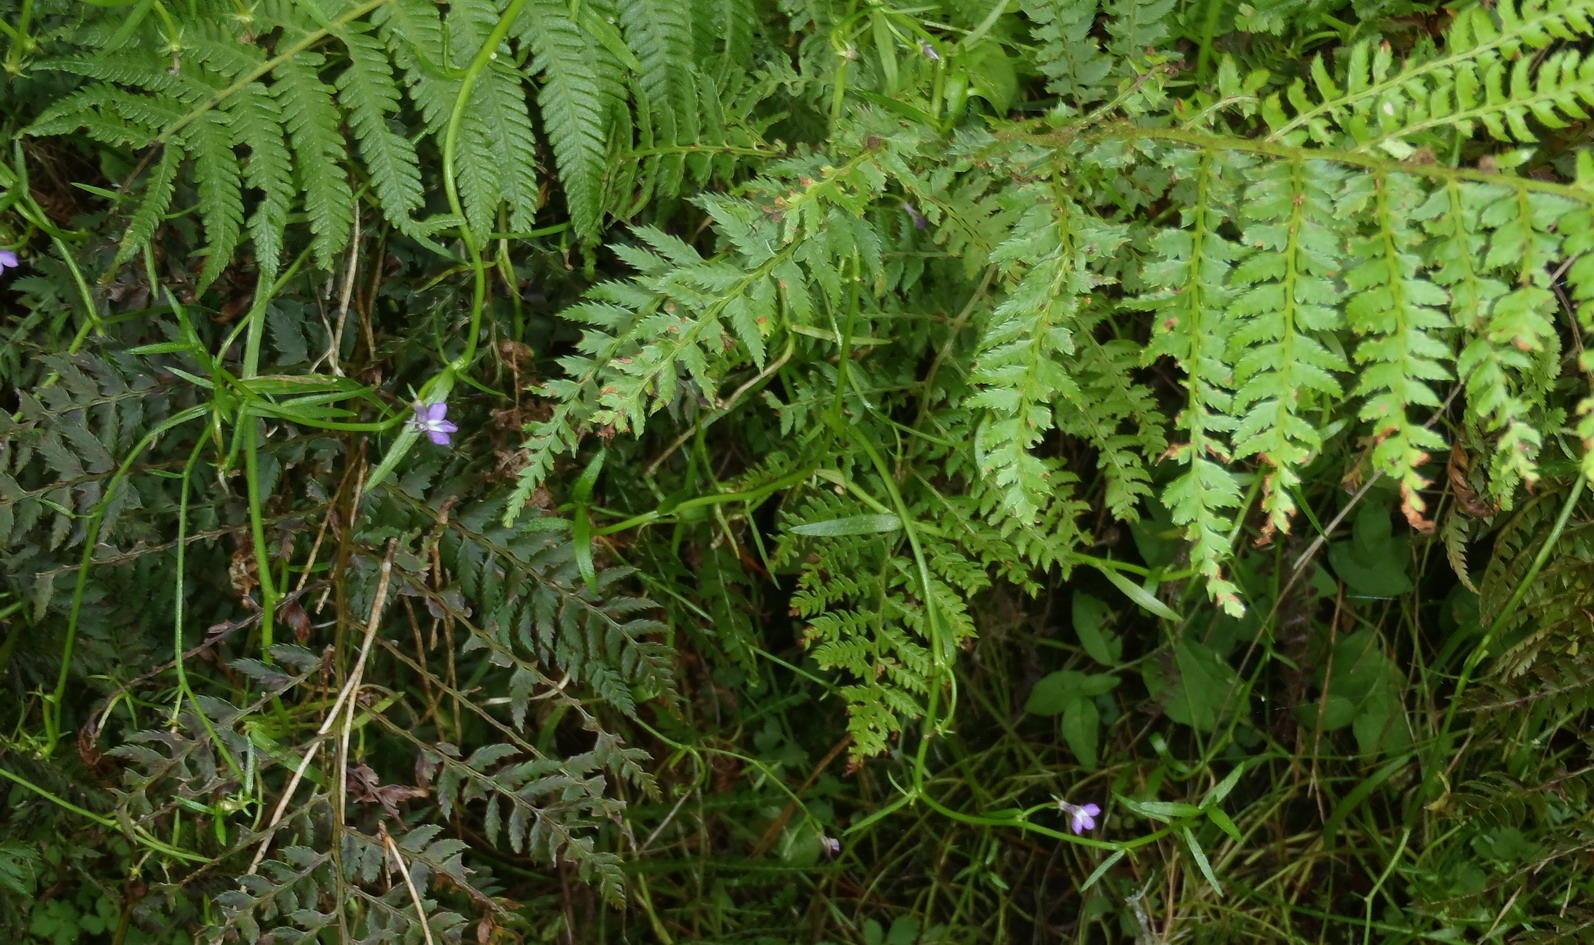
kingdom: Plantae
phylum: Tracheophyta
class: Magnoliopsida
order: Asterales
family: Campanulaceae
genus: Grammatotheca
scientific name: Grammatotheca bergiana
